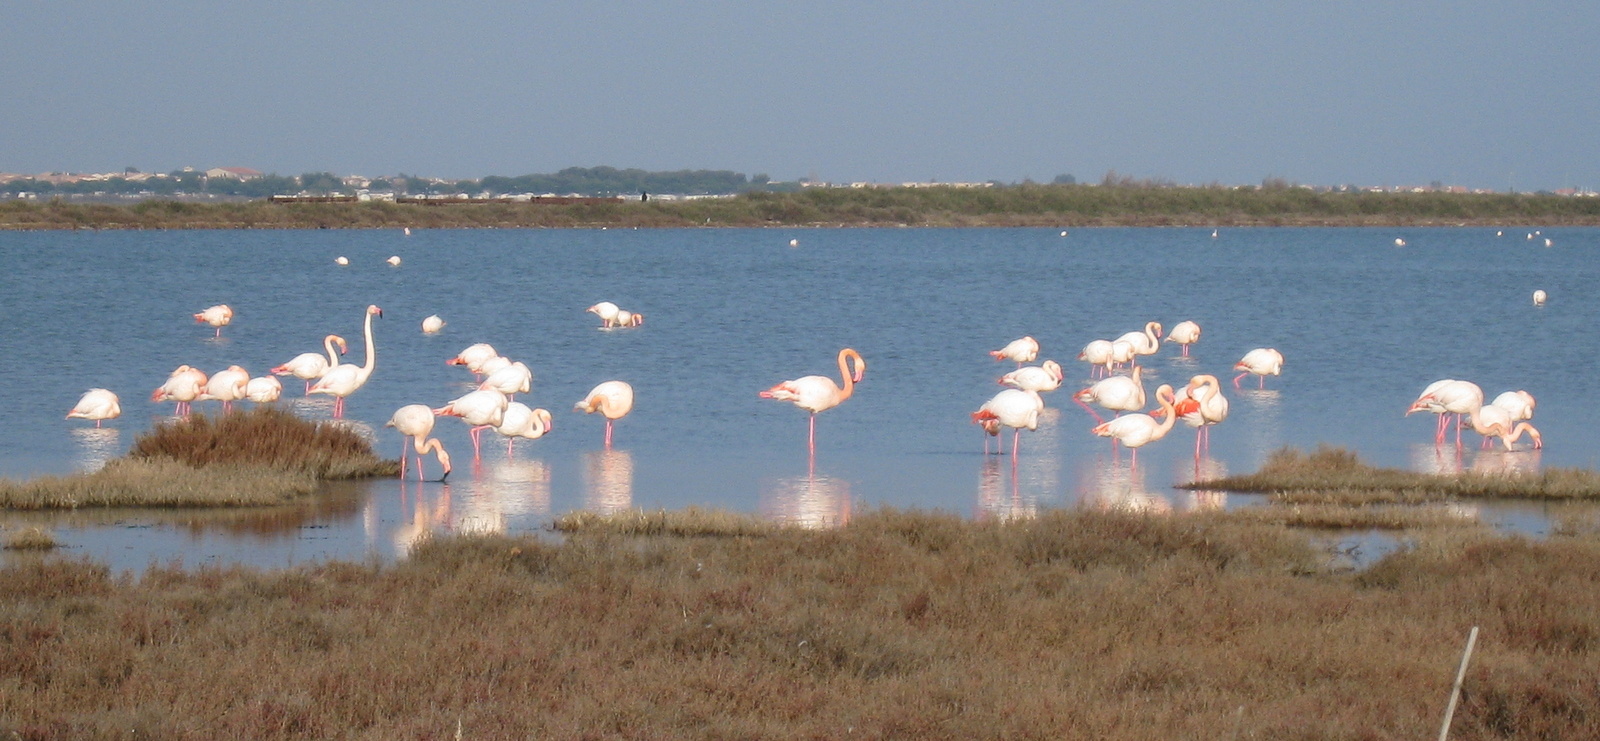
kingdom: Animalia
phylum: Chordata
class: Aves
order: Phoenicopteriformes
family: Phoenicopteridae
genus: Phoenicopterus
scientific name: Phoenicopterus roseus
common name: Greater flamingo
